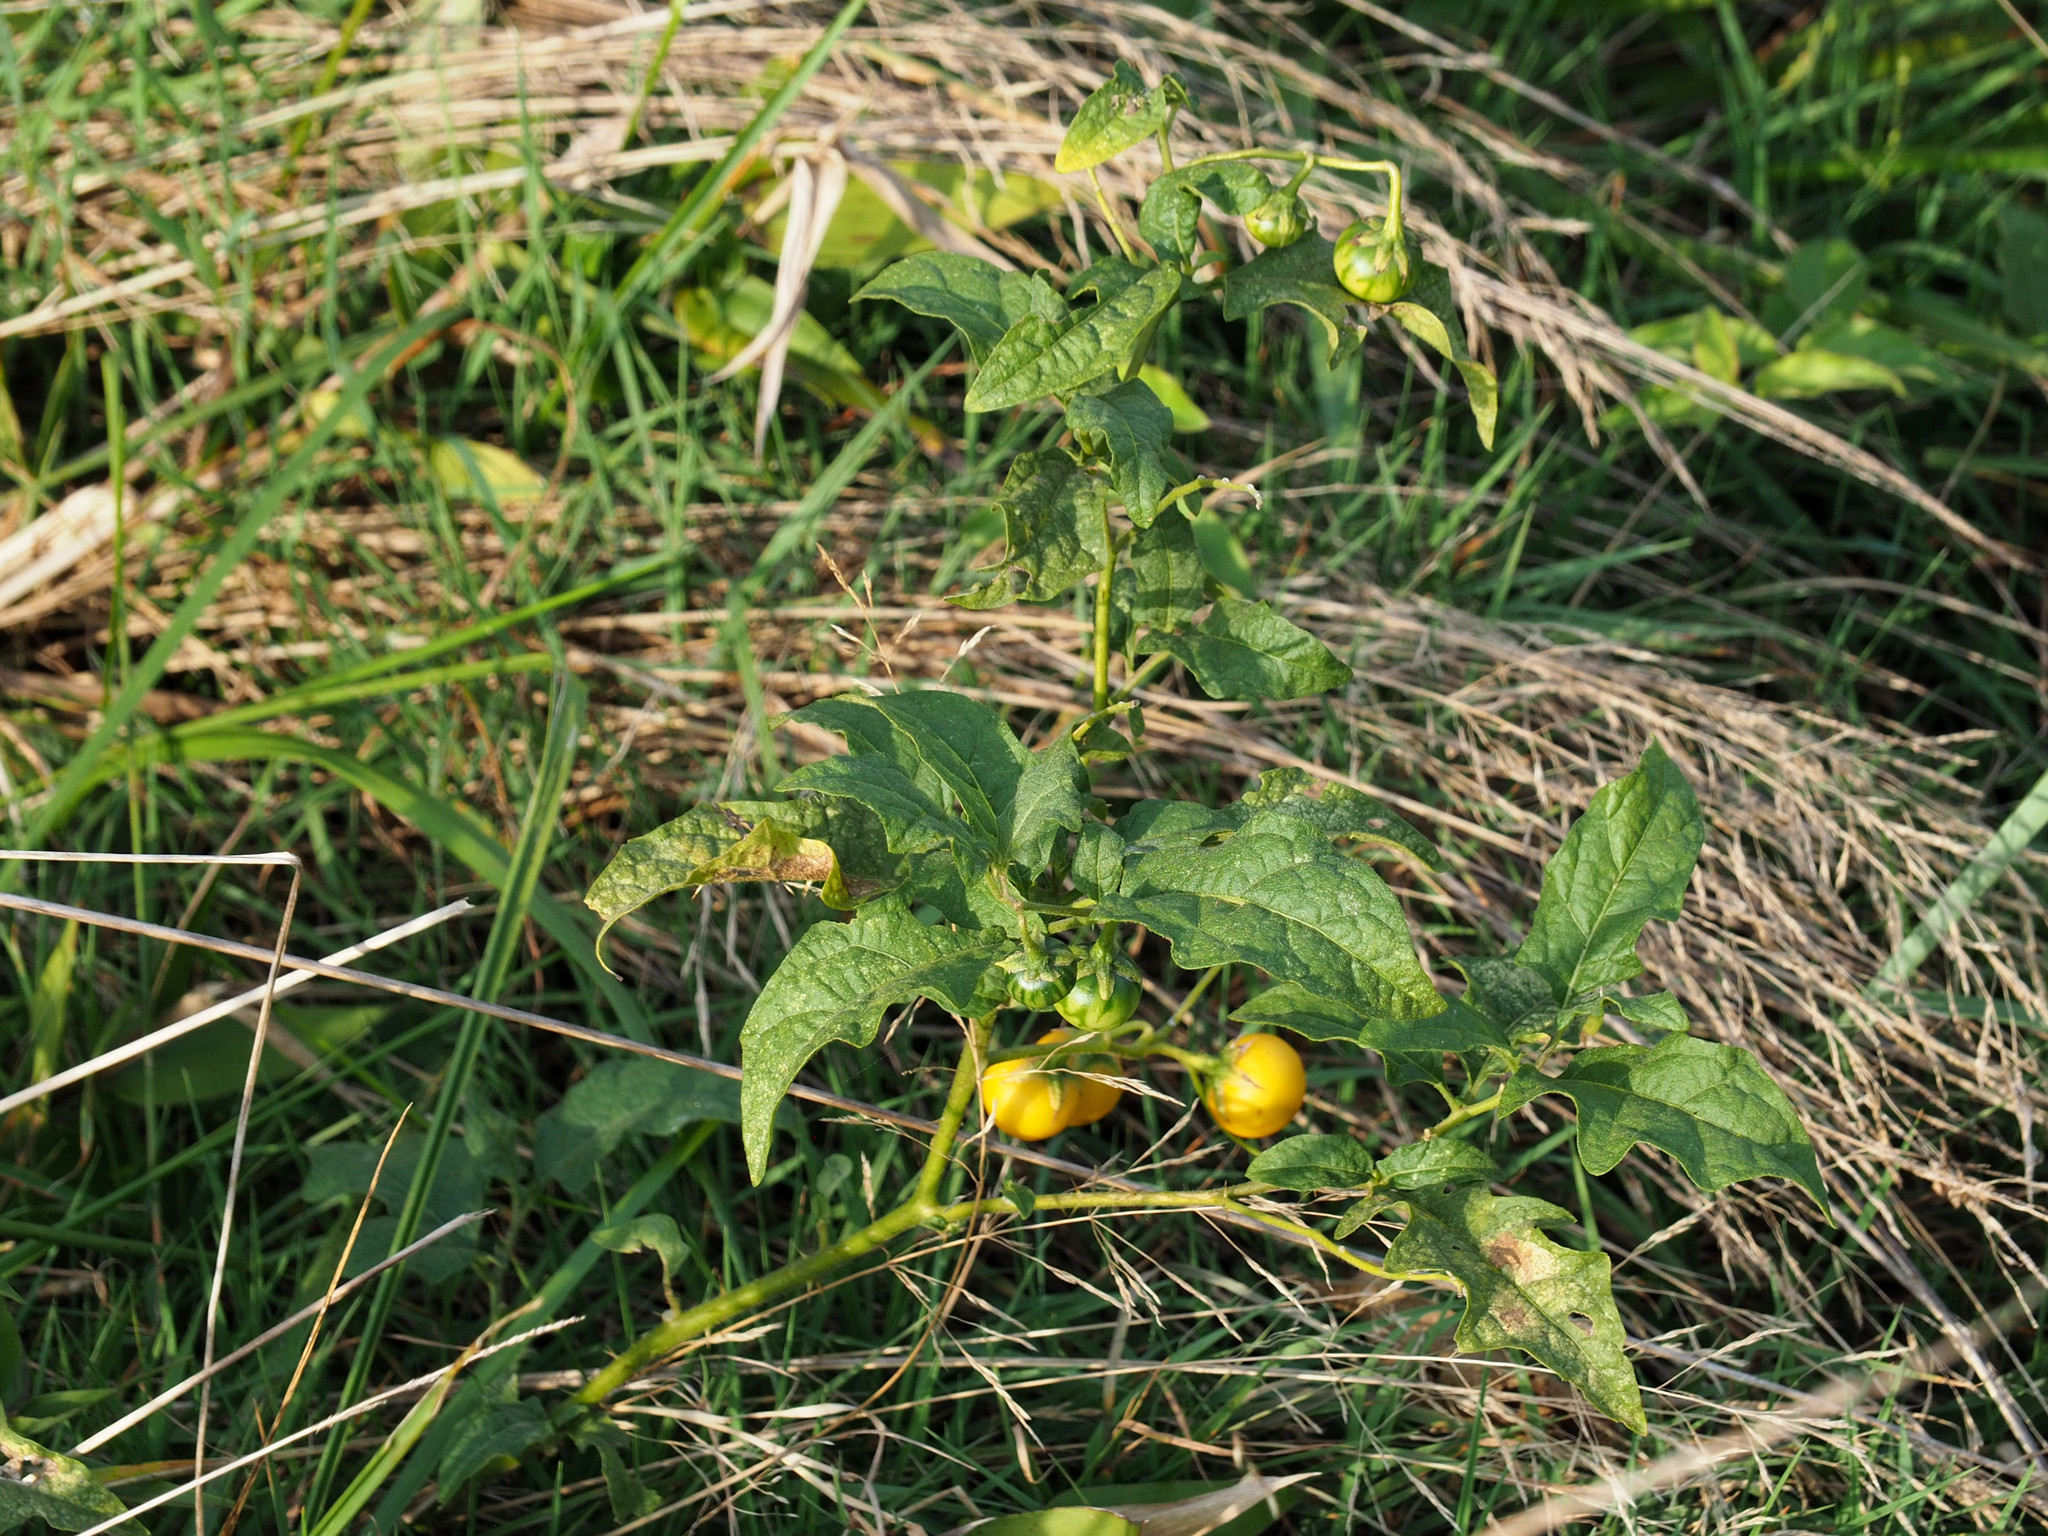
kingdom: Plantae
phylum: Tracheophyta
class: Magnoliopsida
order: Solanales
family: Solanaceae
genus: Solanum
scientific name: Solanum carolinense
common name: Horse-nettle
